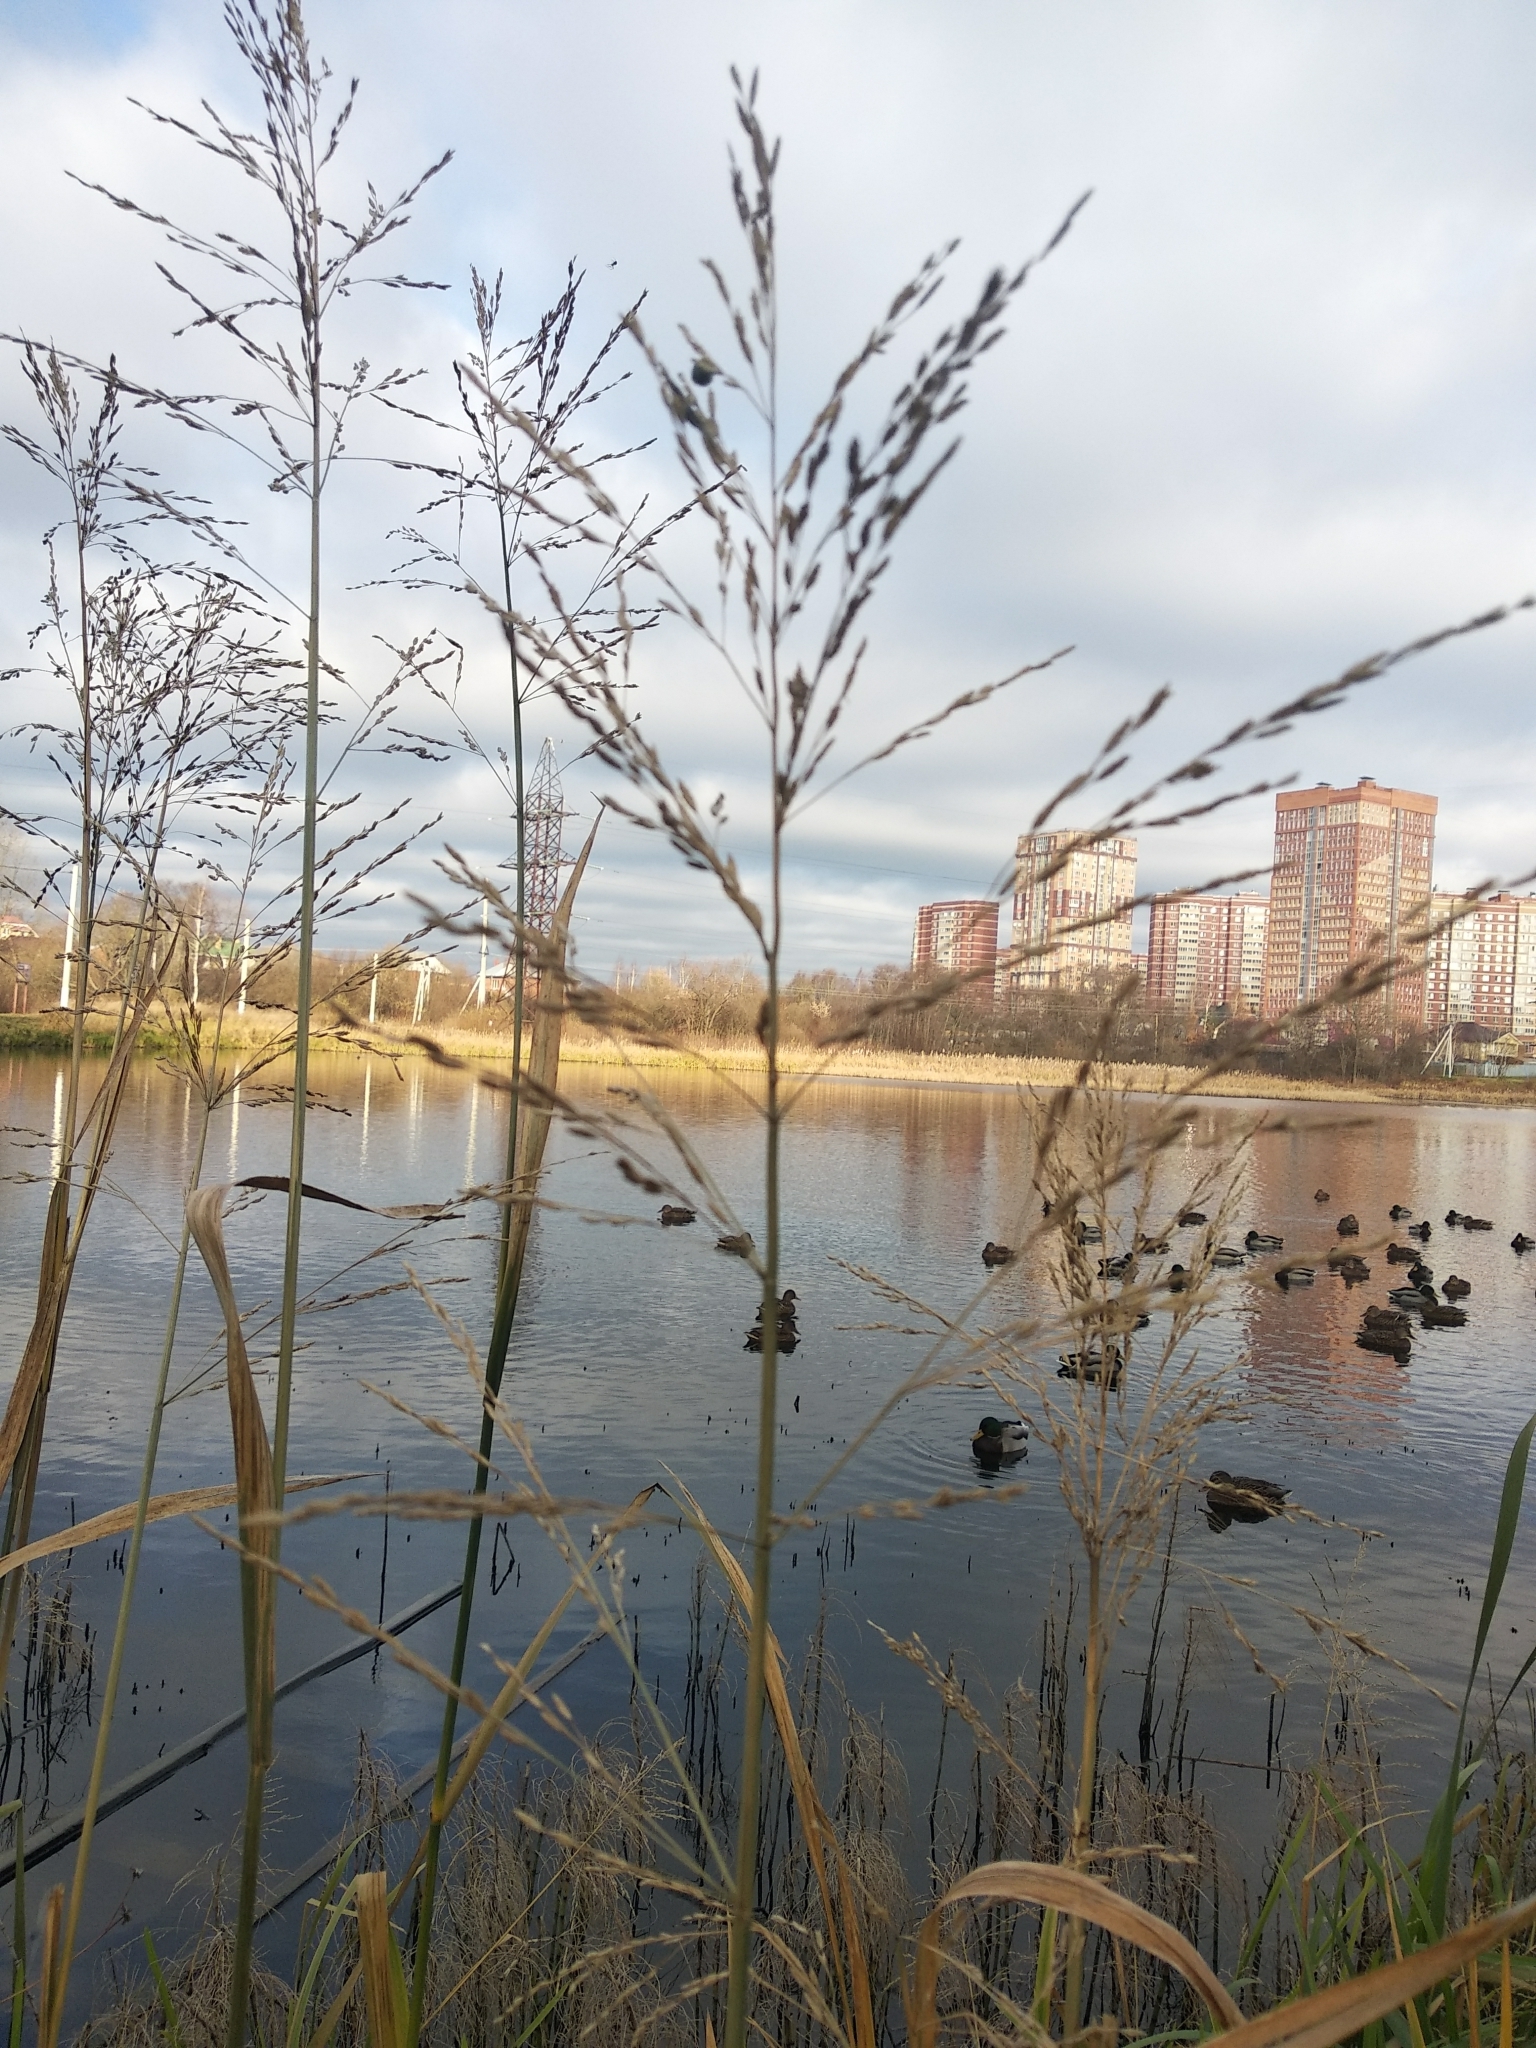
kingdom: Plantae
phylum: Tracheophyta
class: Liliopsida
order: Poales
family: Poaceae
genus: Glyceria
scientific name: Glyceria maxima
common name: Reed mannagrass
